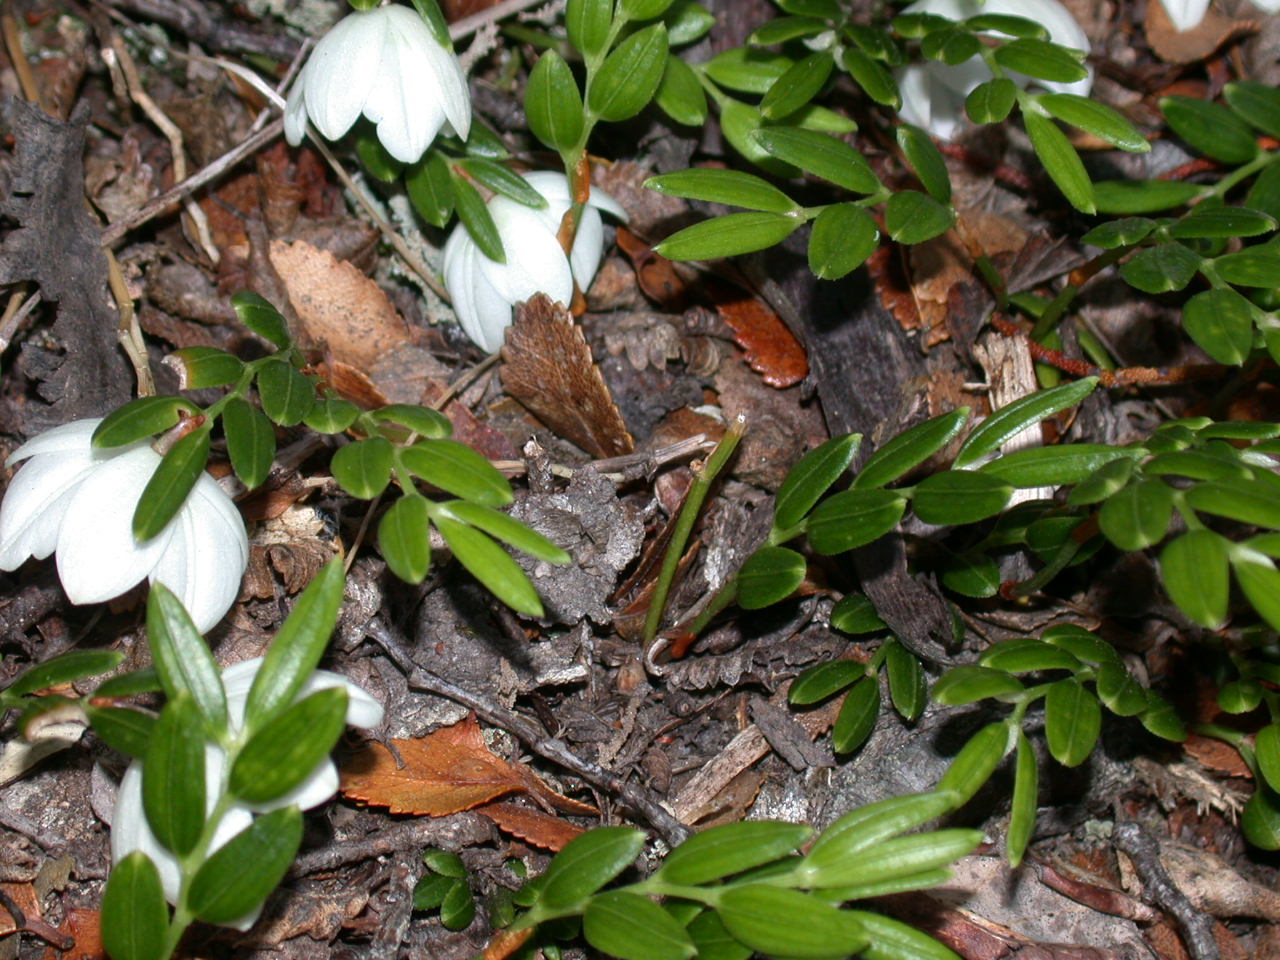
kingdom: Plantae
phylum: Tracheophyta
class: Liliopsida
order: Liliales
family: Alstroemeriaceae
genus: Luzuriaga
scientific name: Luzuriaga marginata
